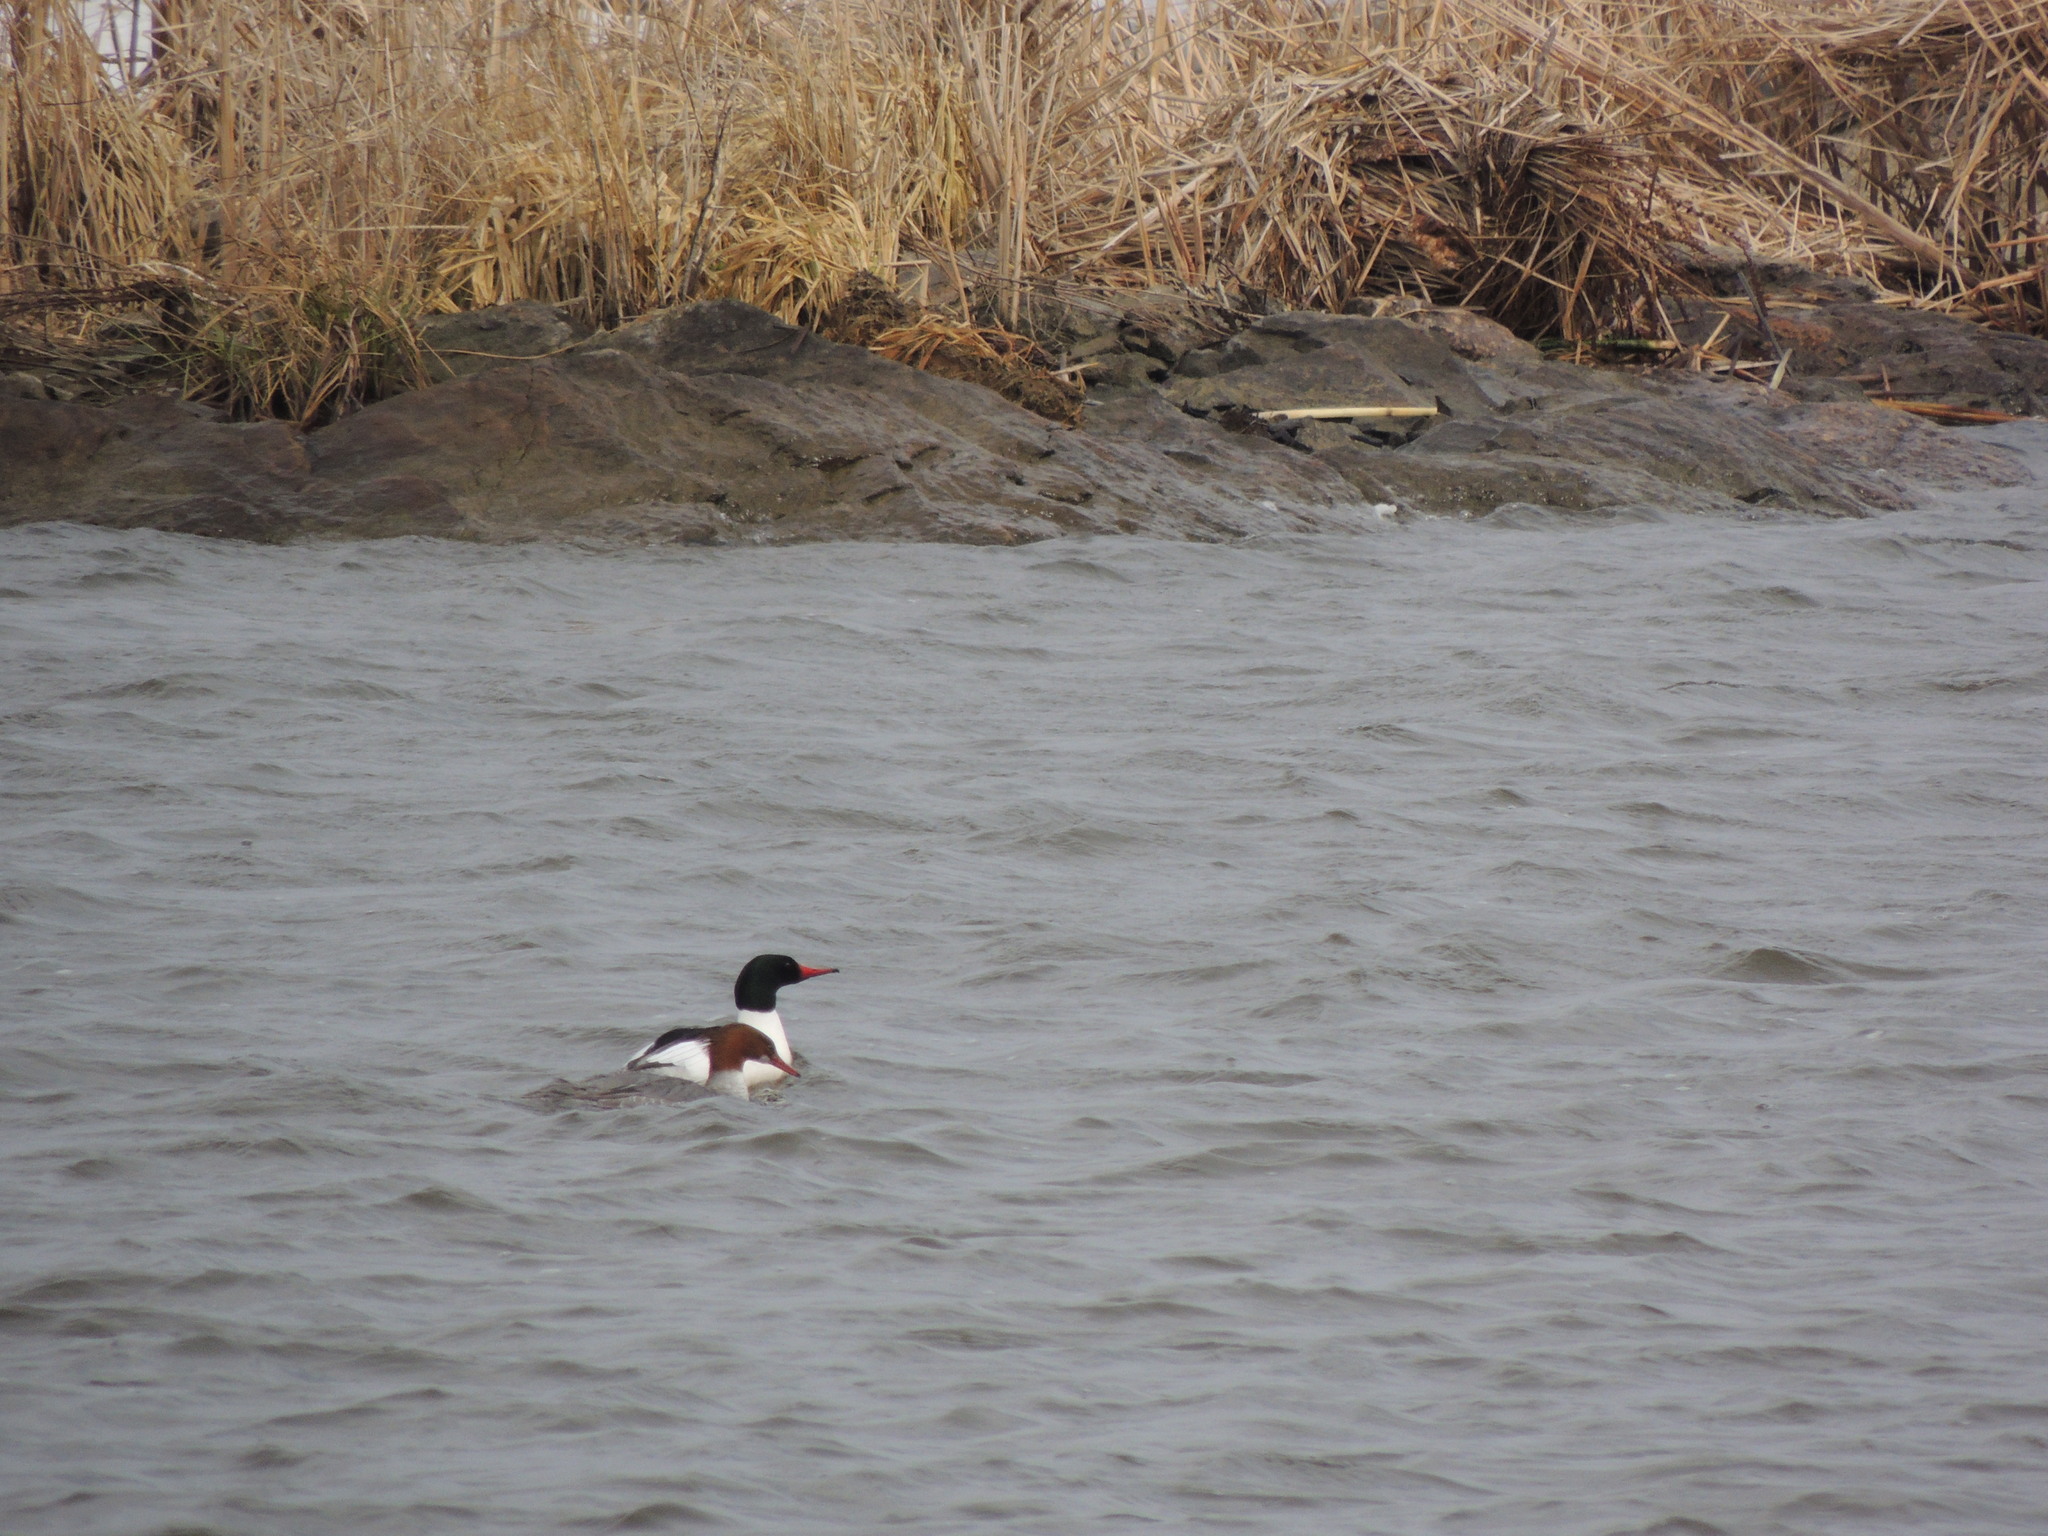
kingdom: Animalia
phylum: Chordata
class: Aves
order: Anseriformes
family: Anatidae
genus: Mergus
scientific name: Mergus merganser
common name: Common merganser
